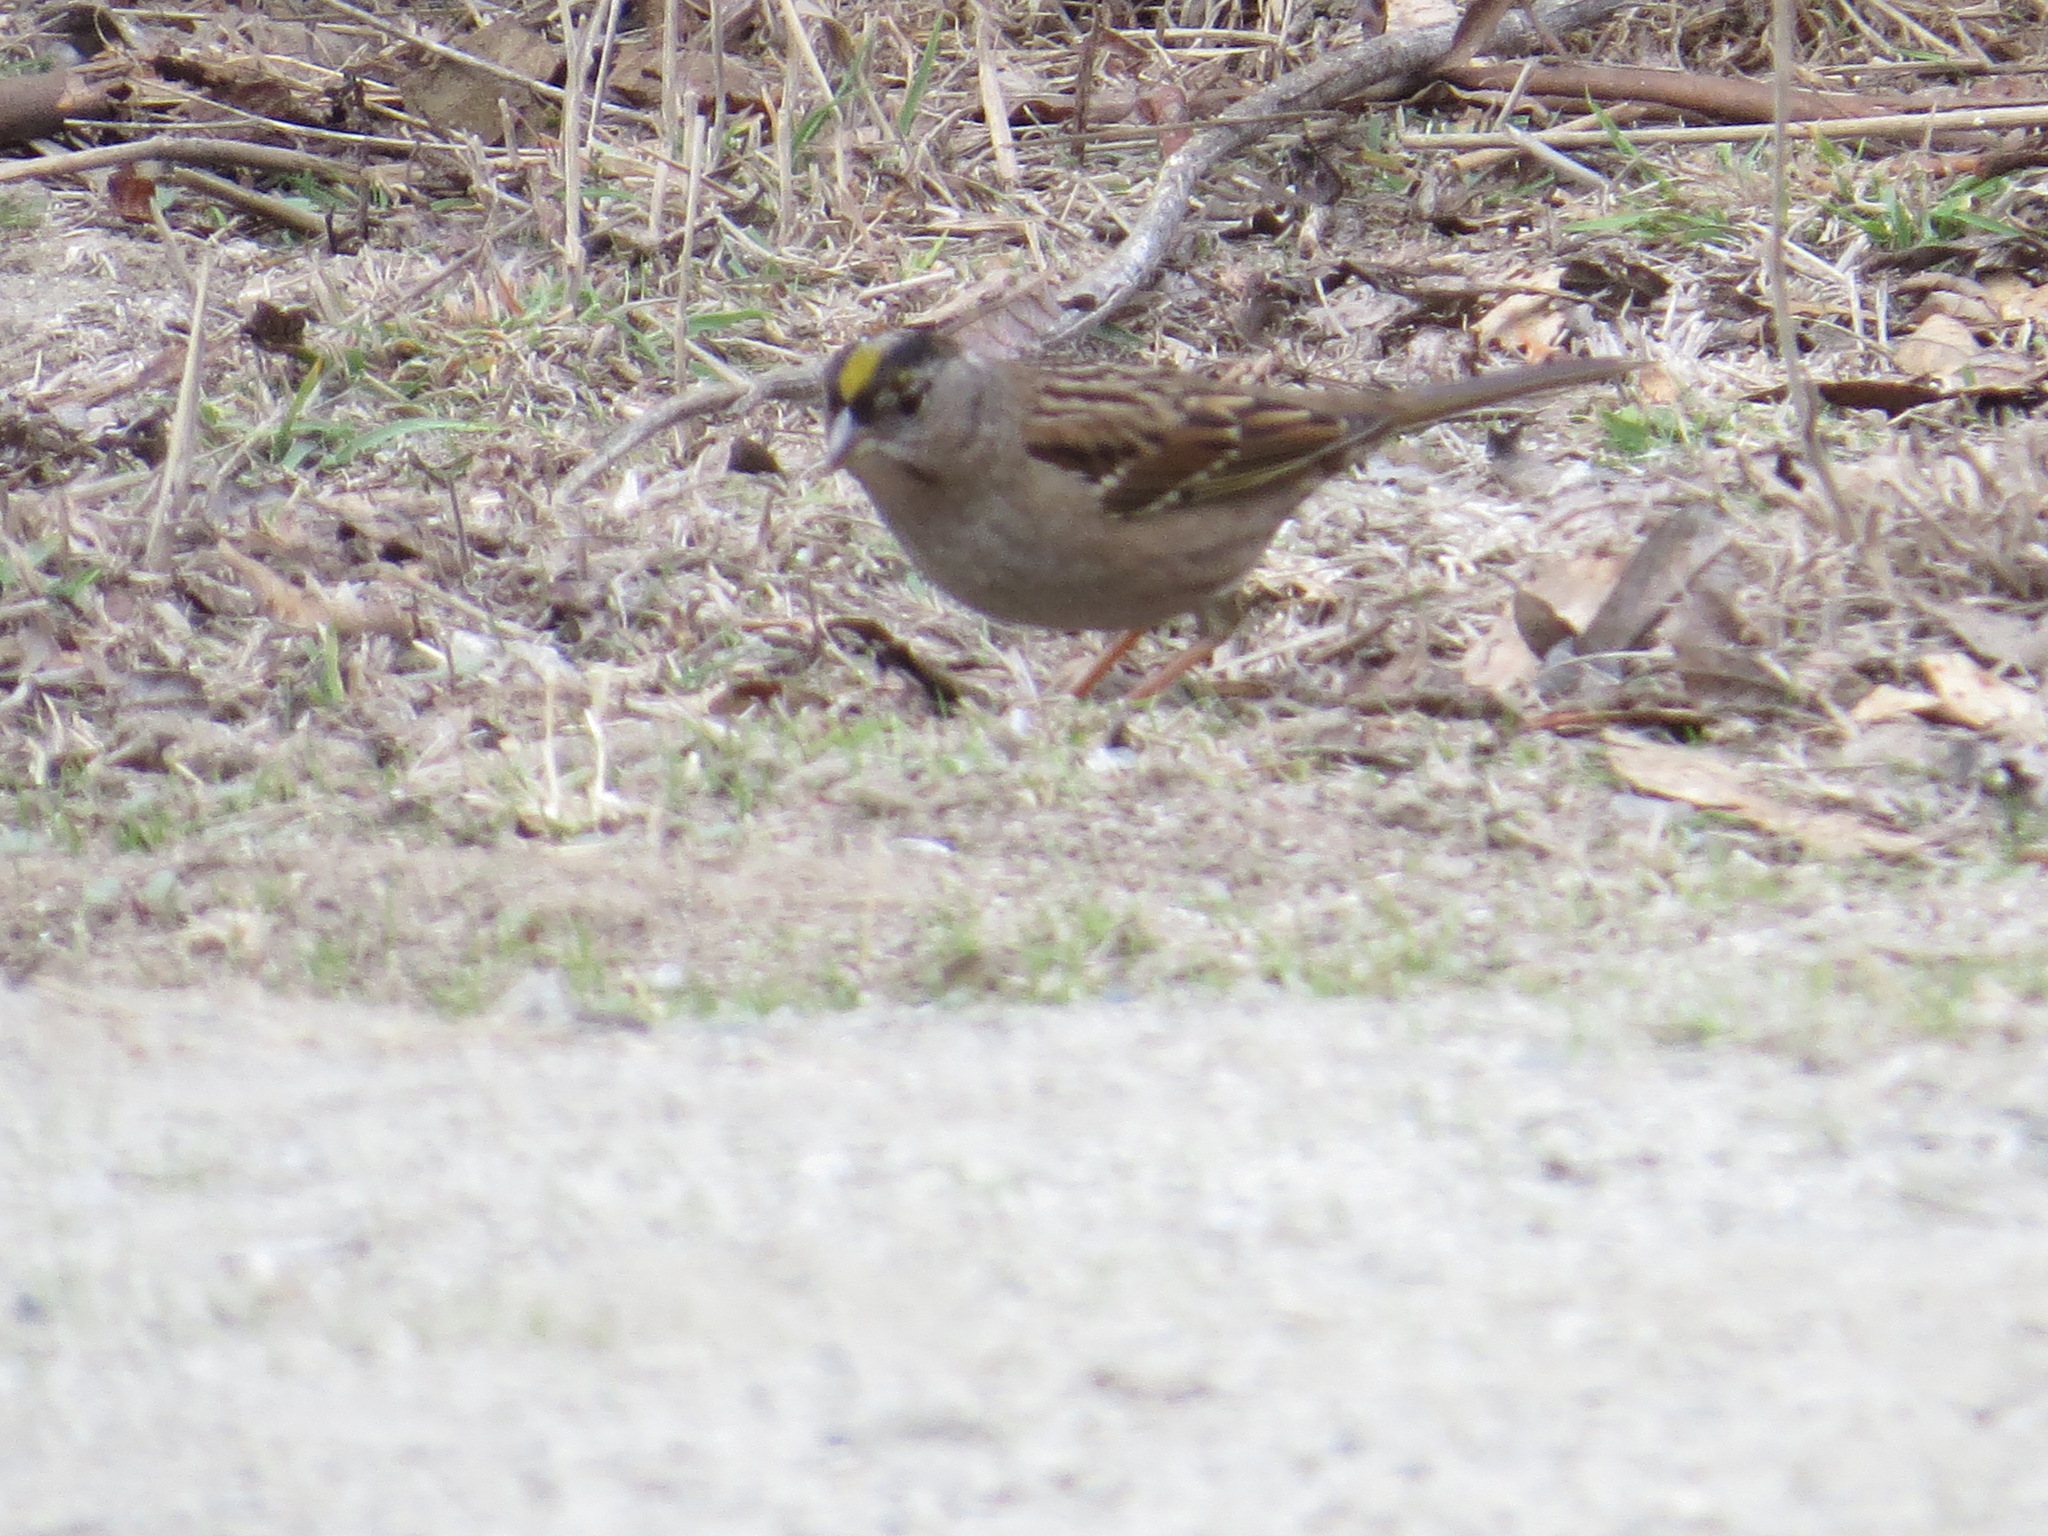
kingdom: Animalia
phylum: Chordata
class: Aves
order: Passeriformes
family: Passerellidae
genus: Zonotrichia
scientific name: Zonotrichia atricapilla
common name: Golden-crowned sparrow
